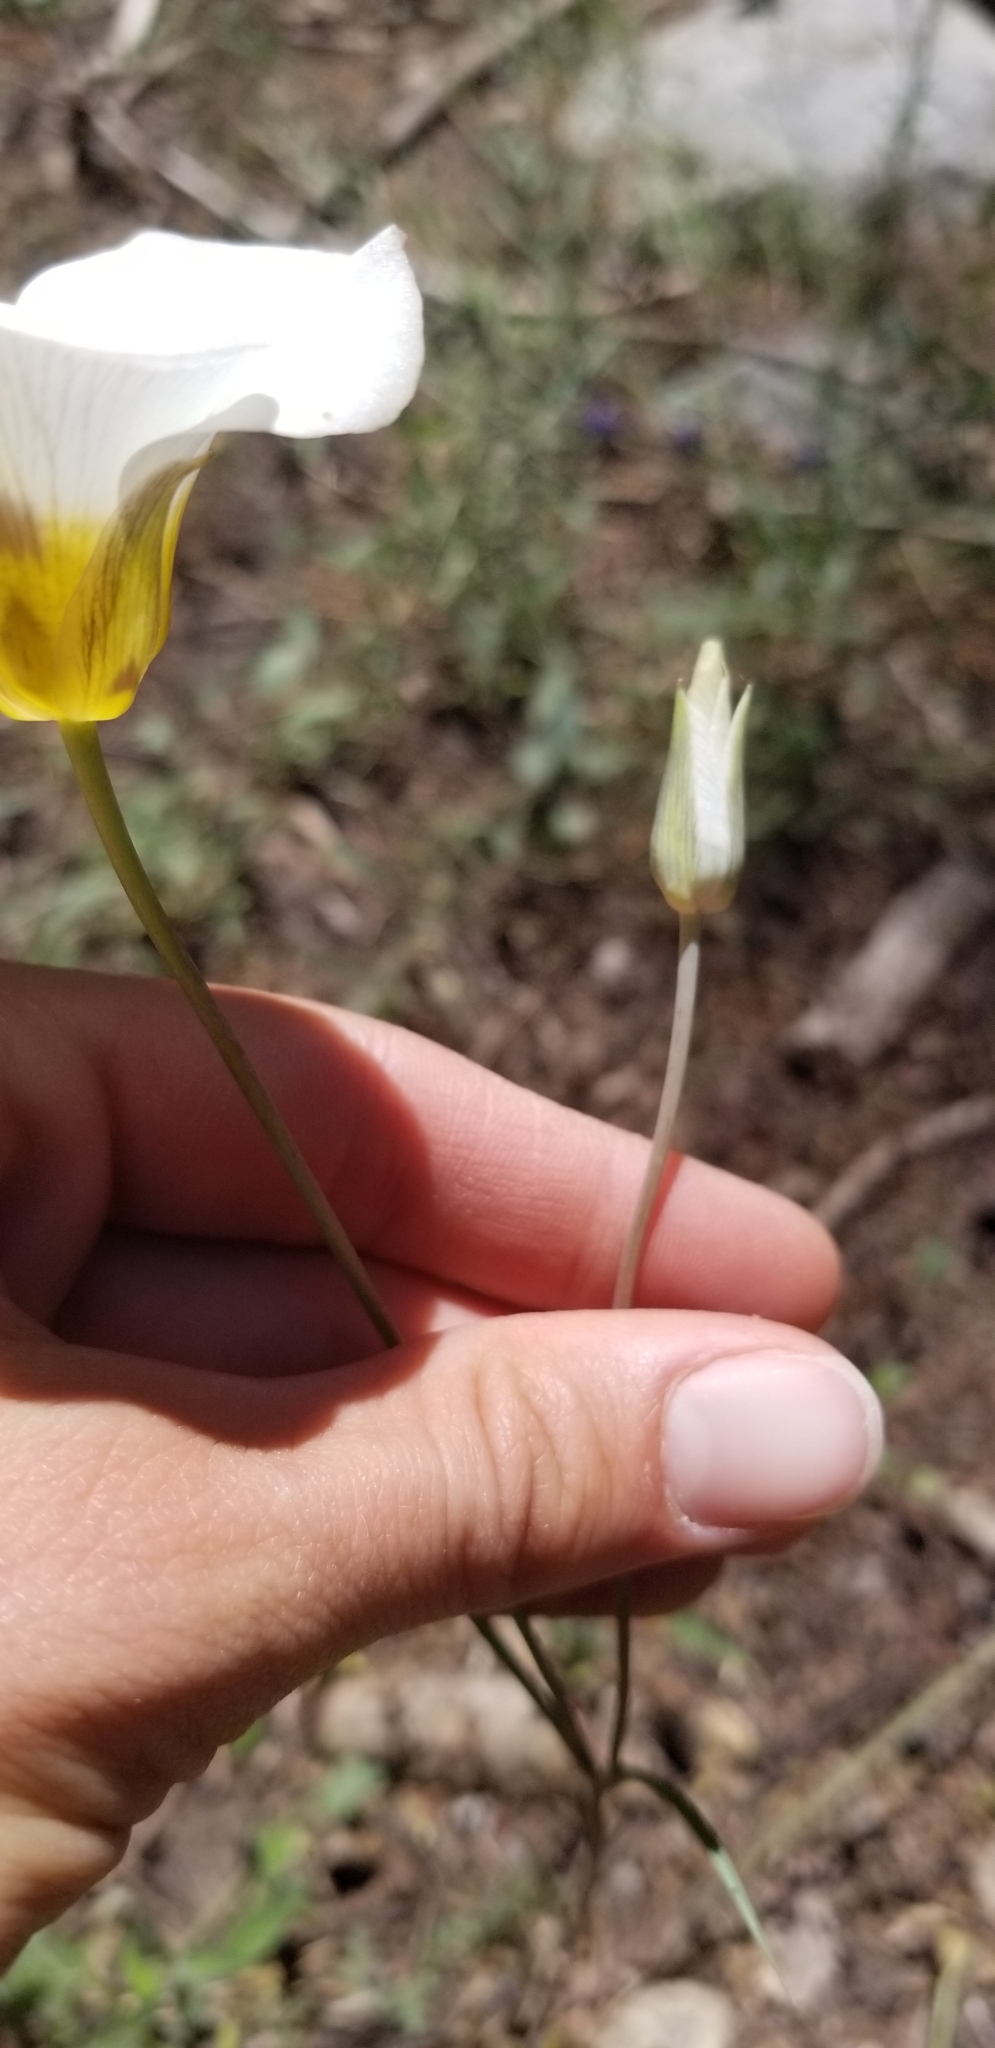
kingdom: Plantae
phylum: Tracheophyta
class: Liliopsida
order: Liliales
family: Liliaceae
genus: Calochortus
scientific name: Calochortus leichtlinii
